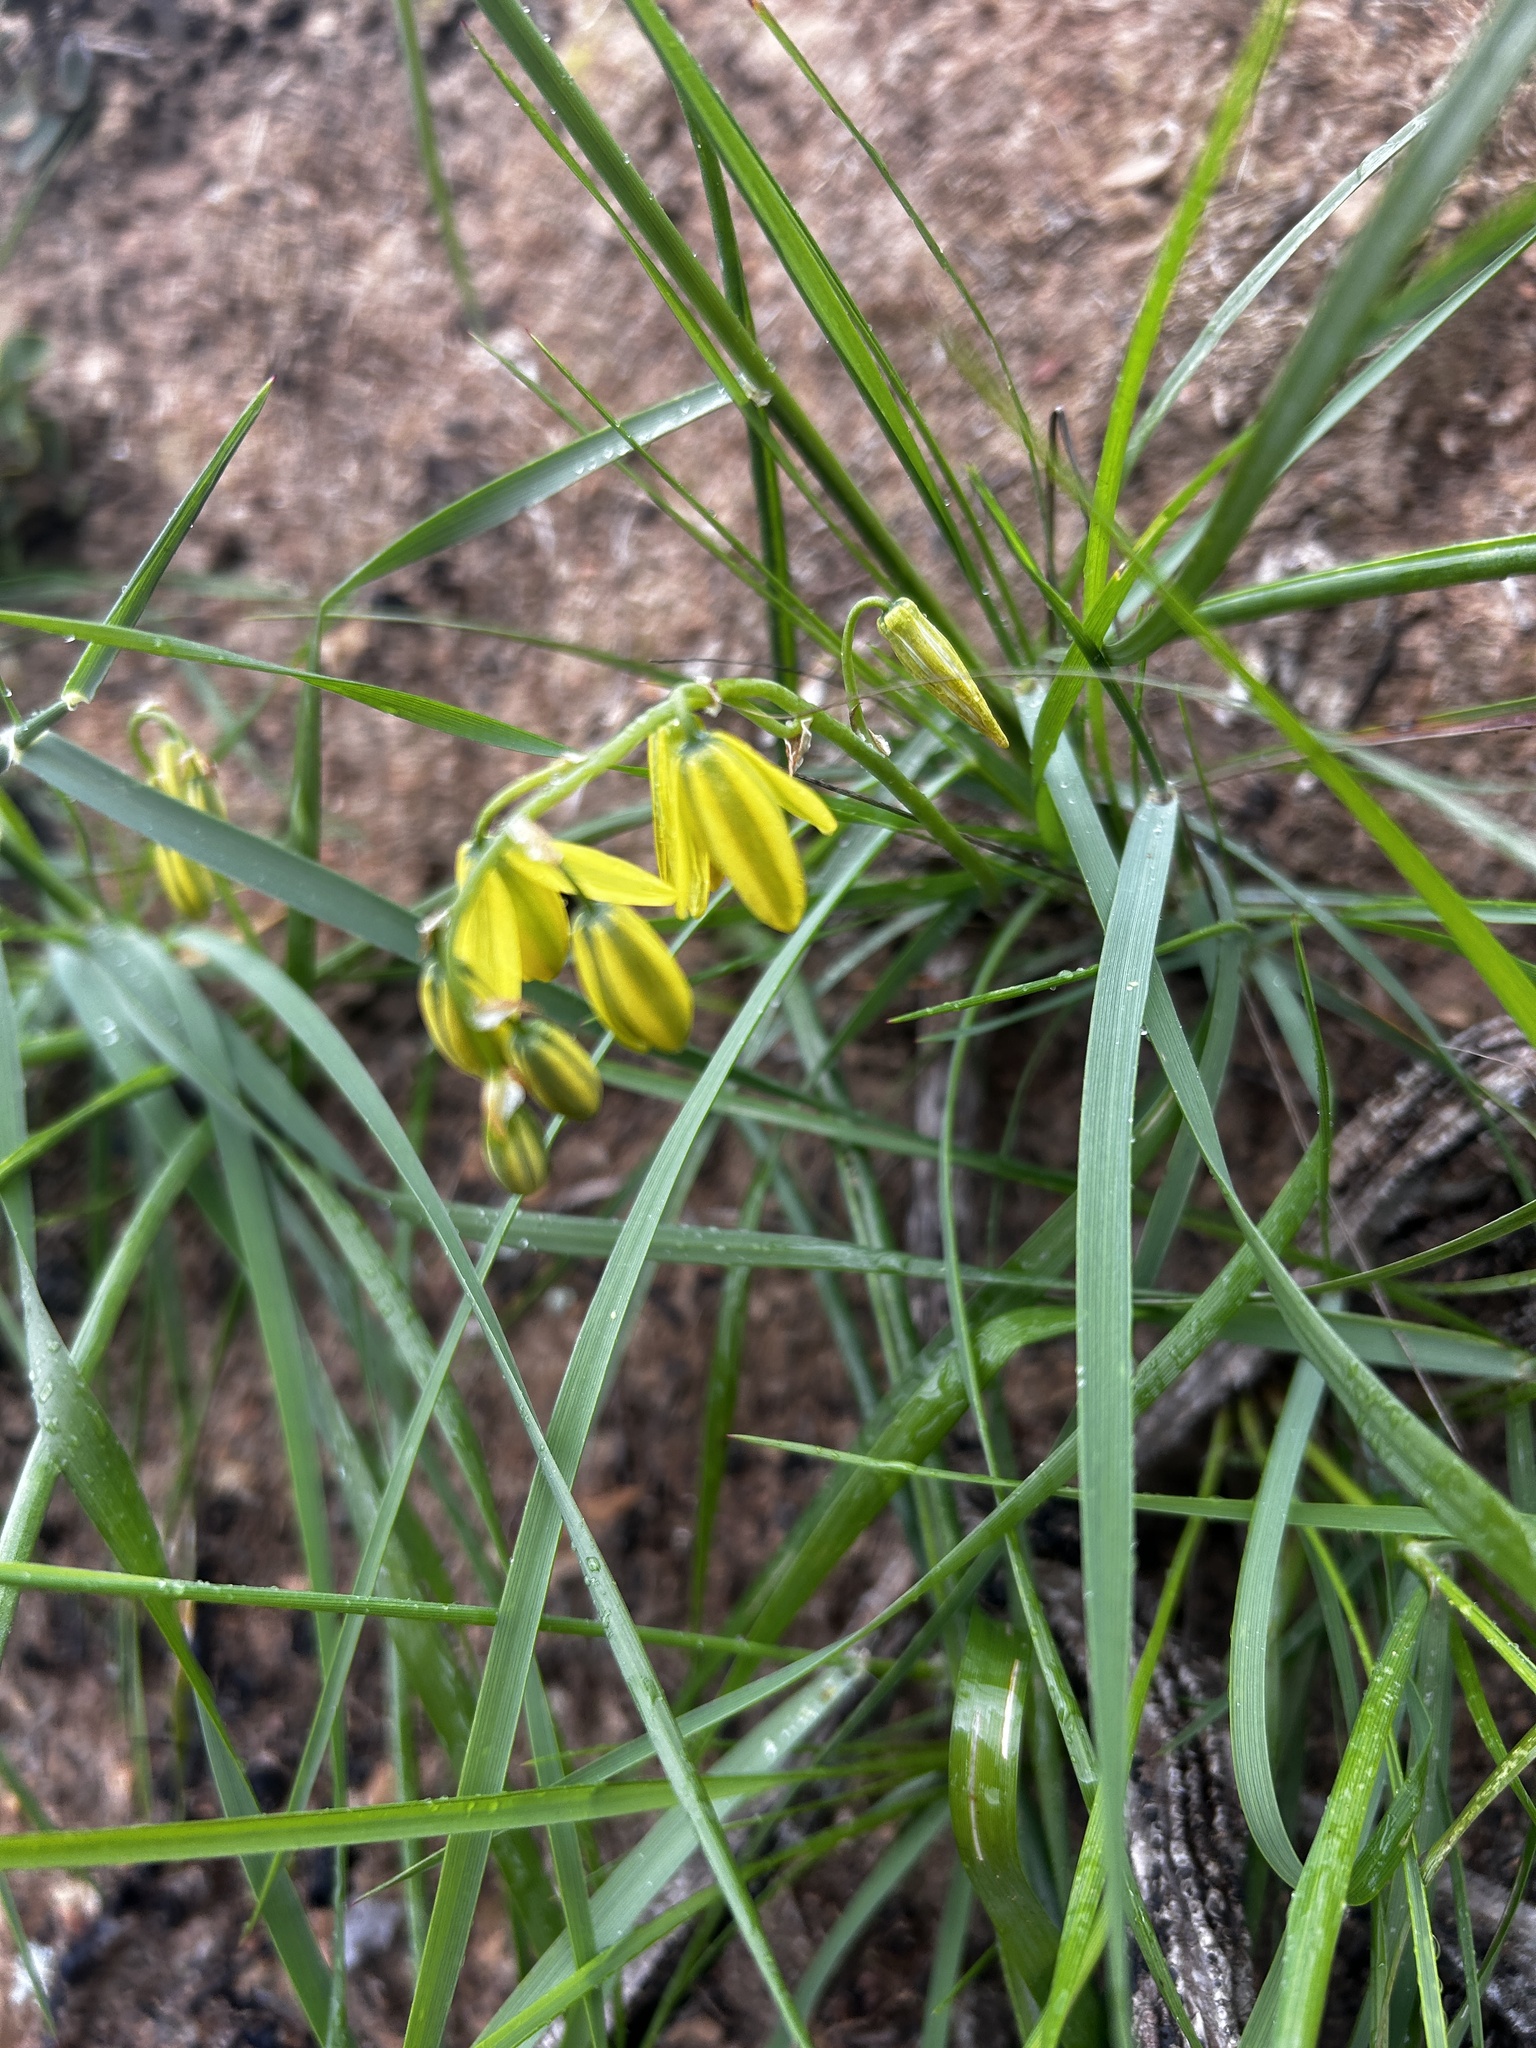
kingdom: Plantae
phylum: Tracheophyta
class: Liliopsida
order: Asparagales
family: Asparagaceae
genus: Albuca
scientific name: Albuca juncifolia
